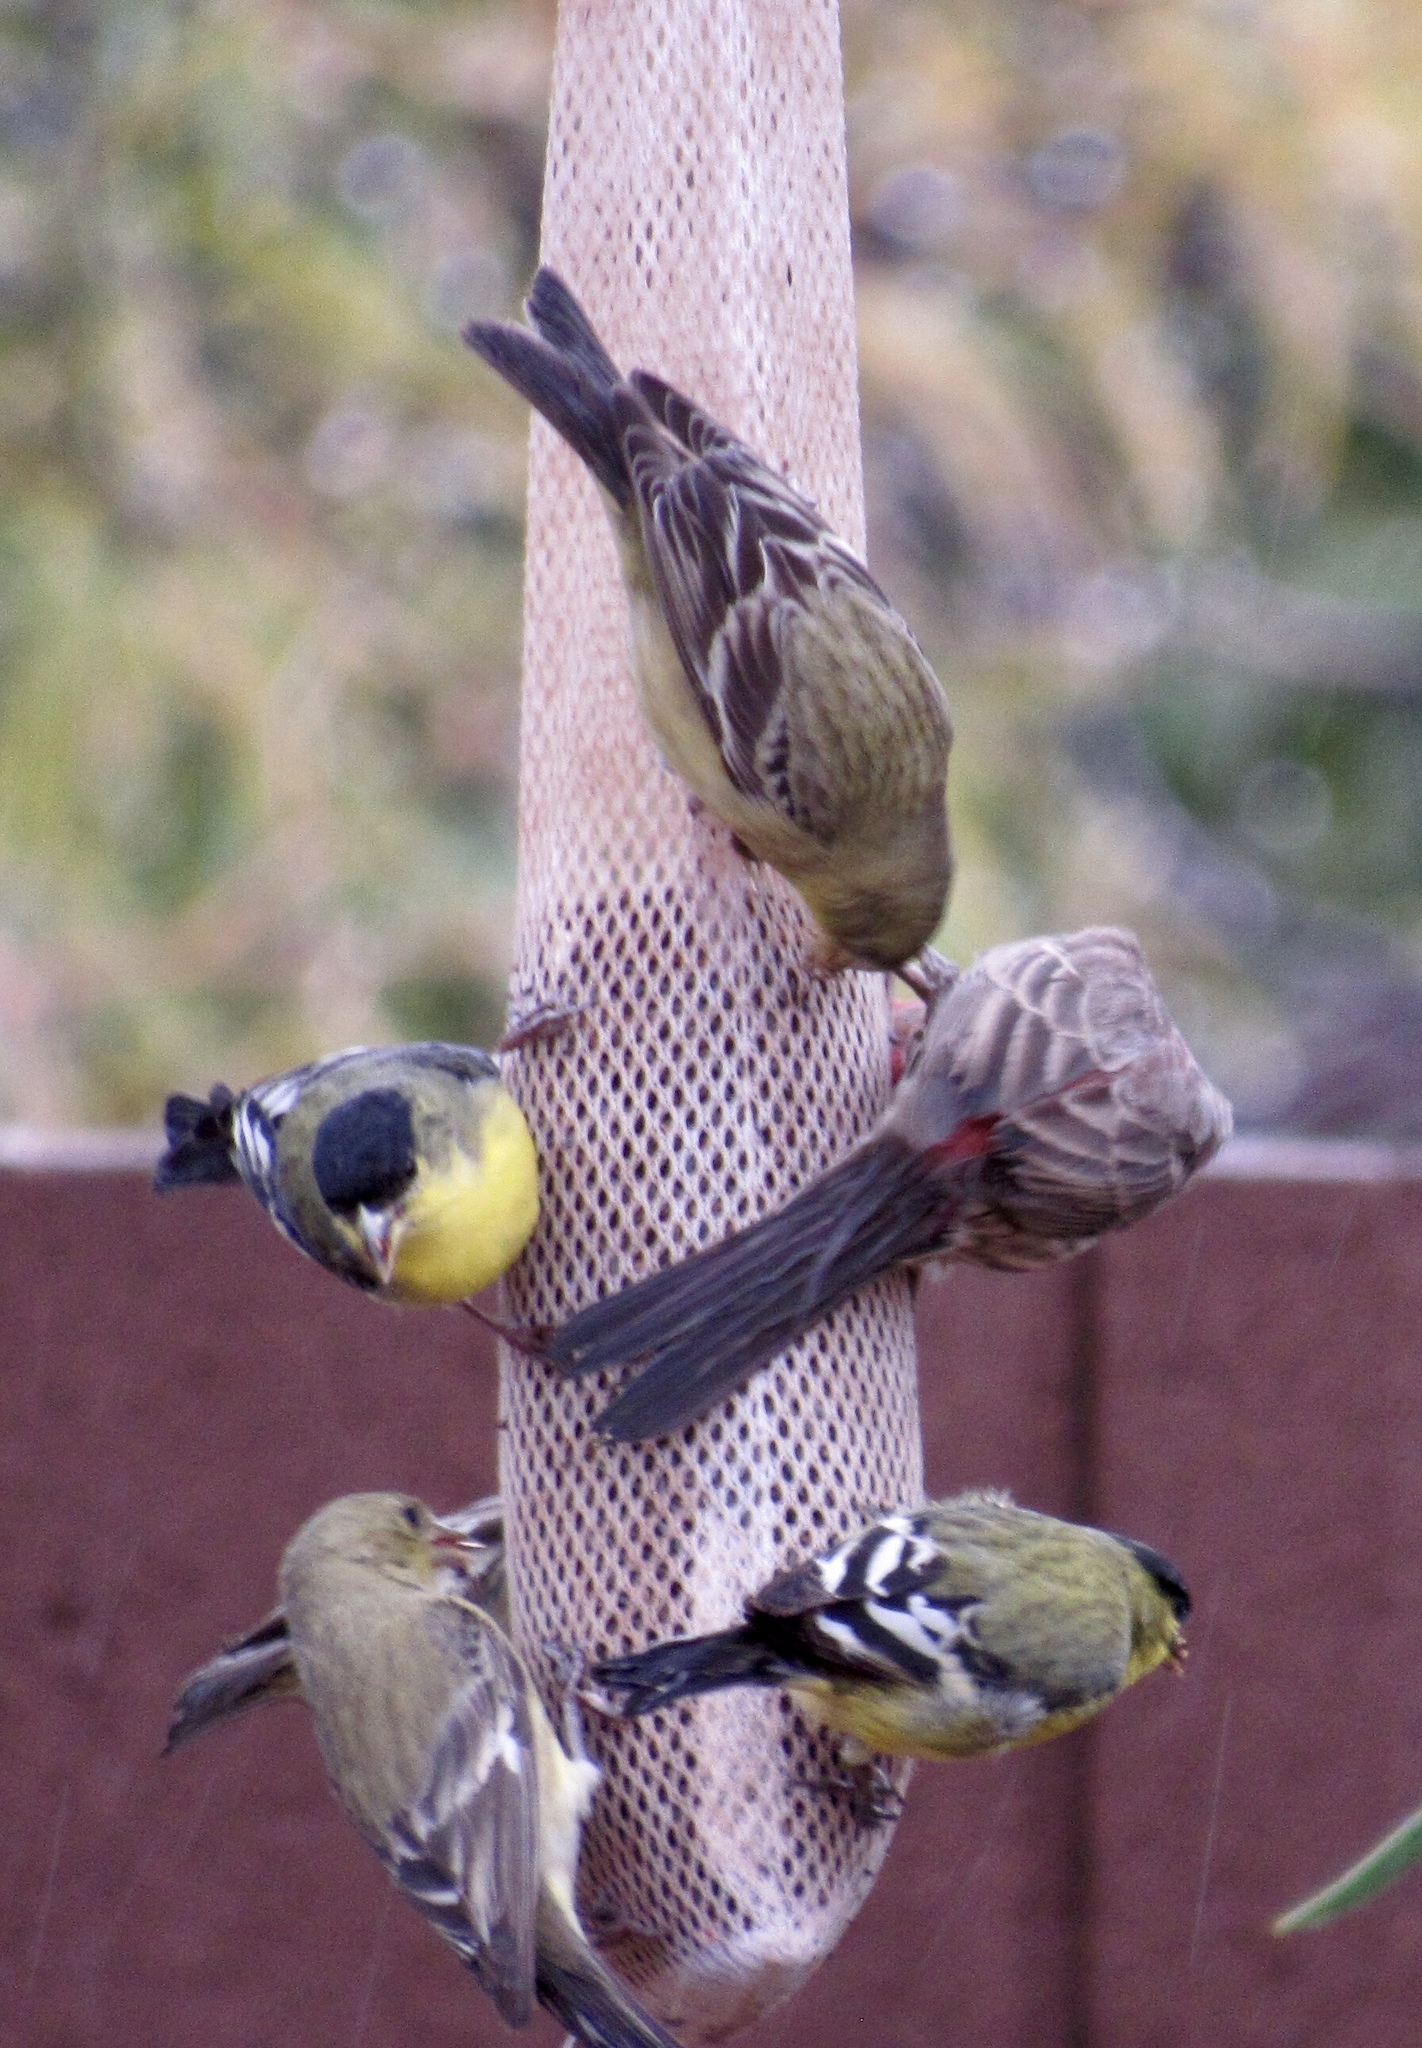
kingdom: Animalia
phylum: Chordata
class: Aves
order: Passeriformes
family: Fringillidae
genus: Spinus
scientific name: Spinus psaltria
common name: Lesser goldfinch
